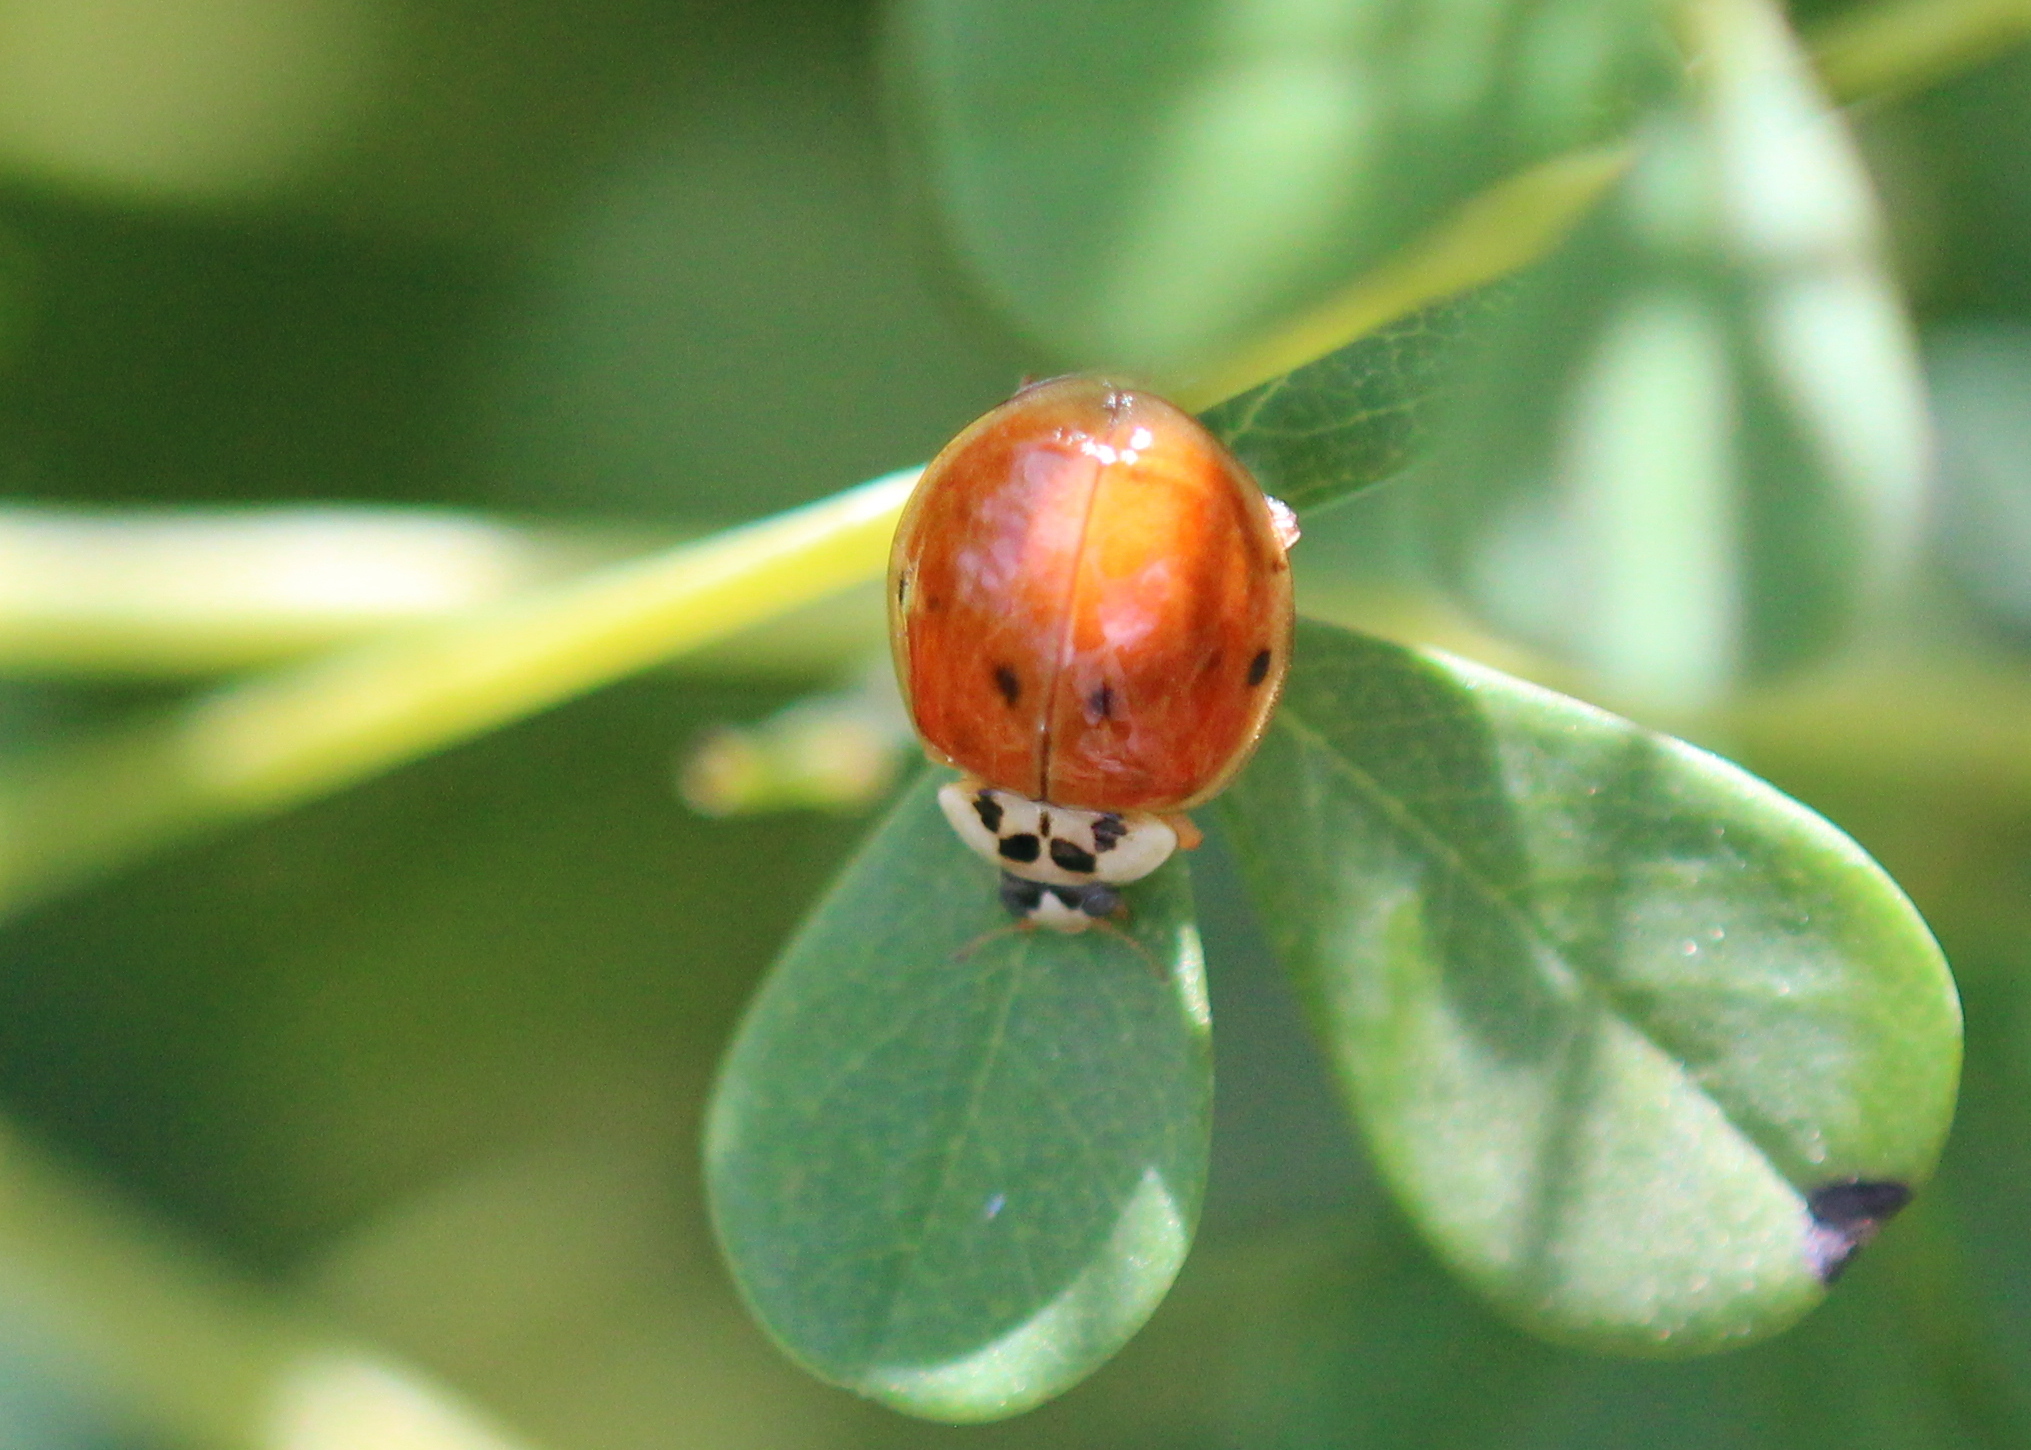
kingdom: Animalia
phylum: Arthropoda
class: Insecta
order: Coleoptera
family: Coccinellidae
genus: Harmonia
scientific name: Harmonia axyridis
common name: Harlequin ladybird
